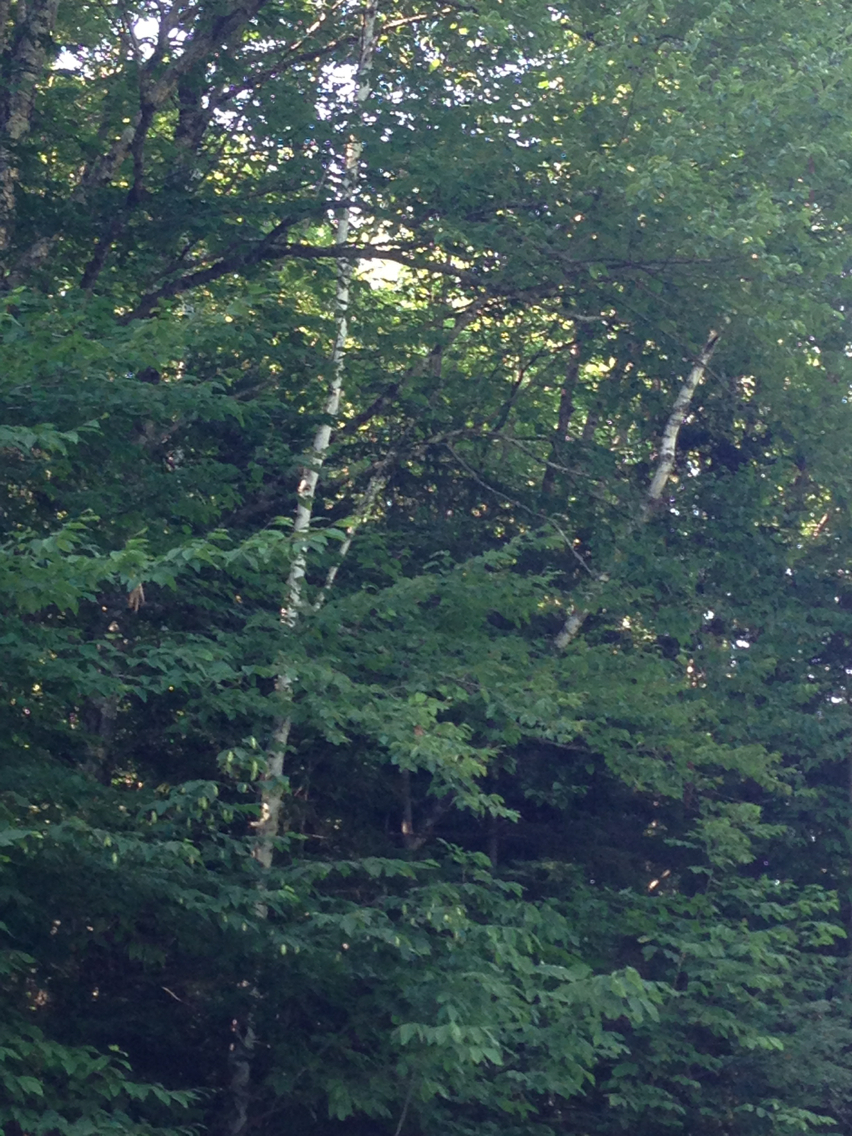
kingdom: Plantae
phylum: Tracheophyta
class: Magnoliopsida
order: Fagales
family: Betulaceae
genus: Betula
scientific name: Betula papyrifera
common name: Paper birch
